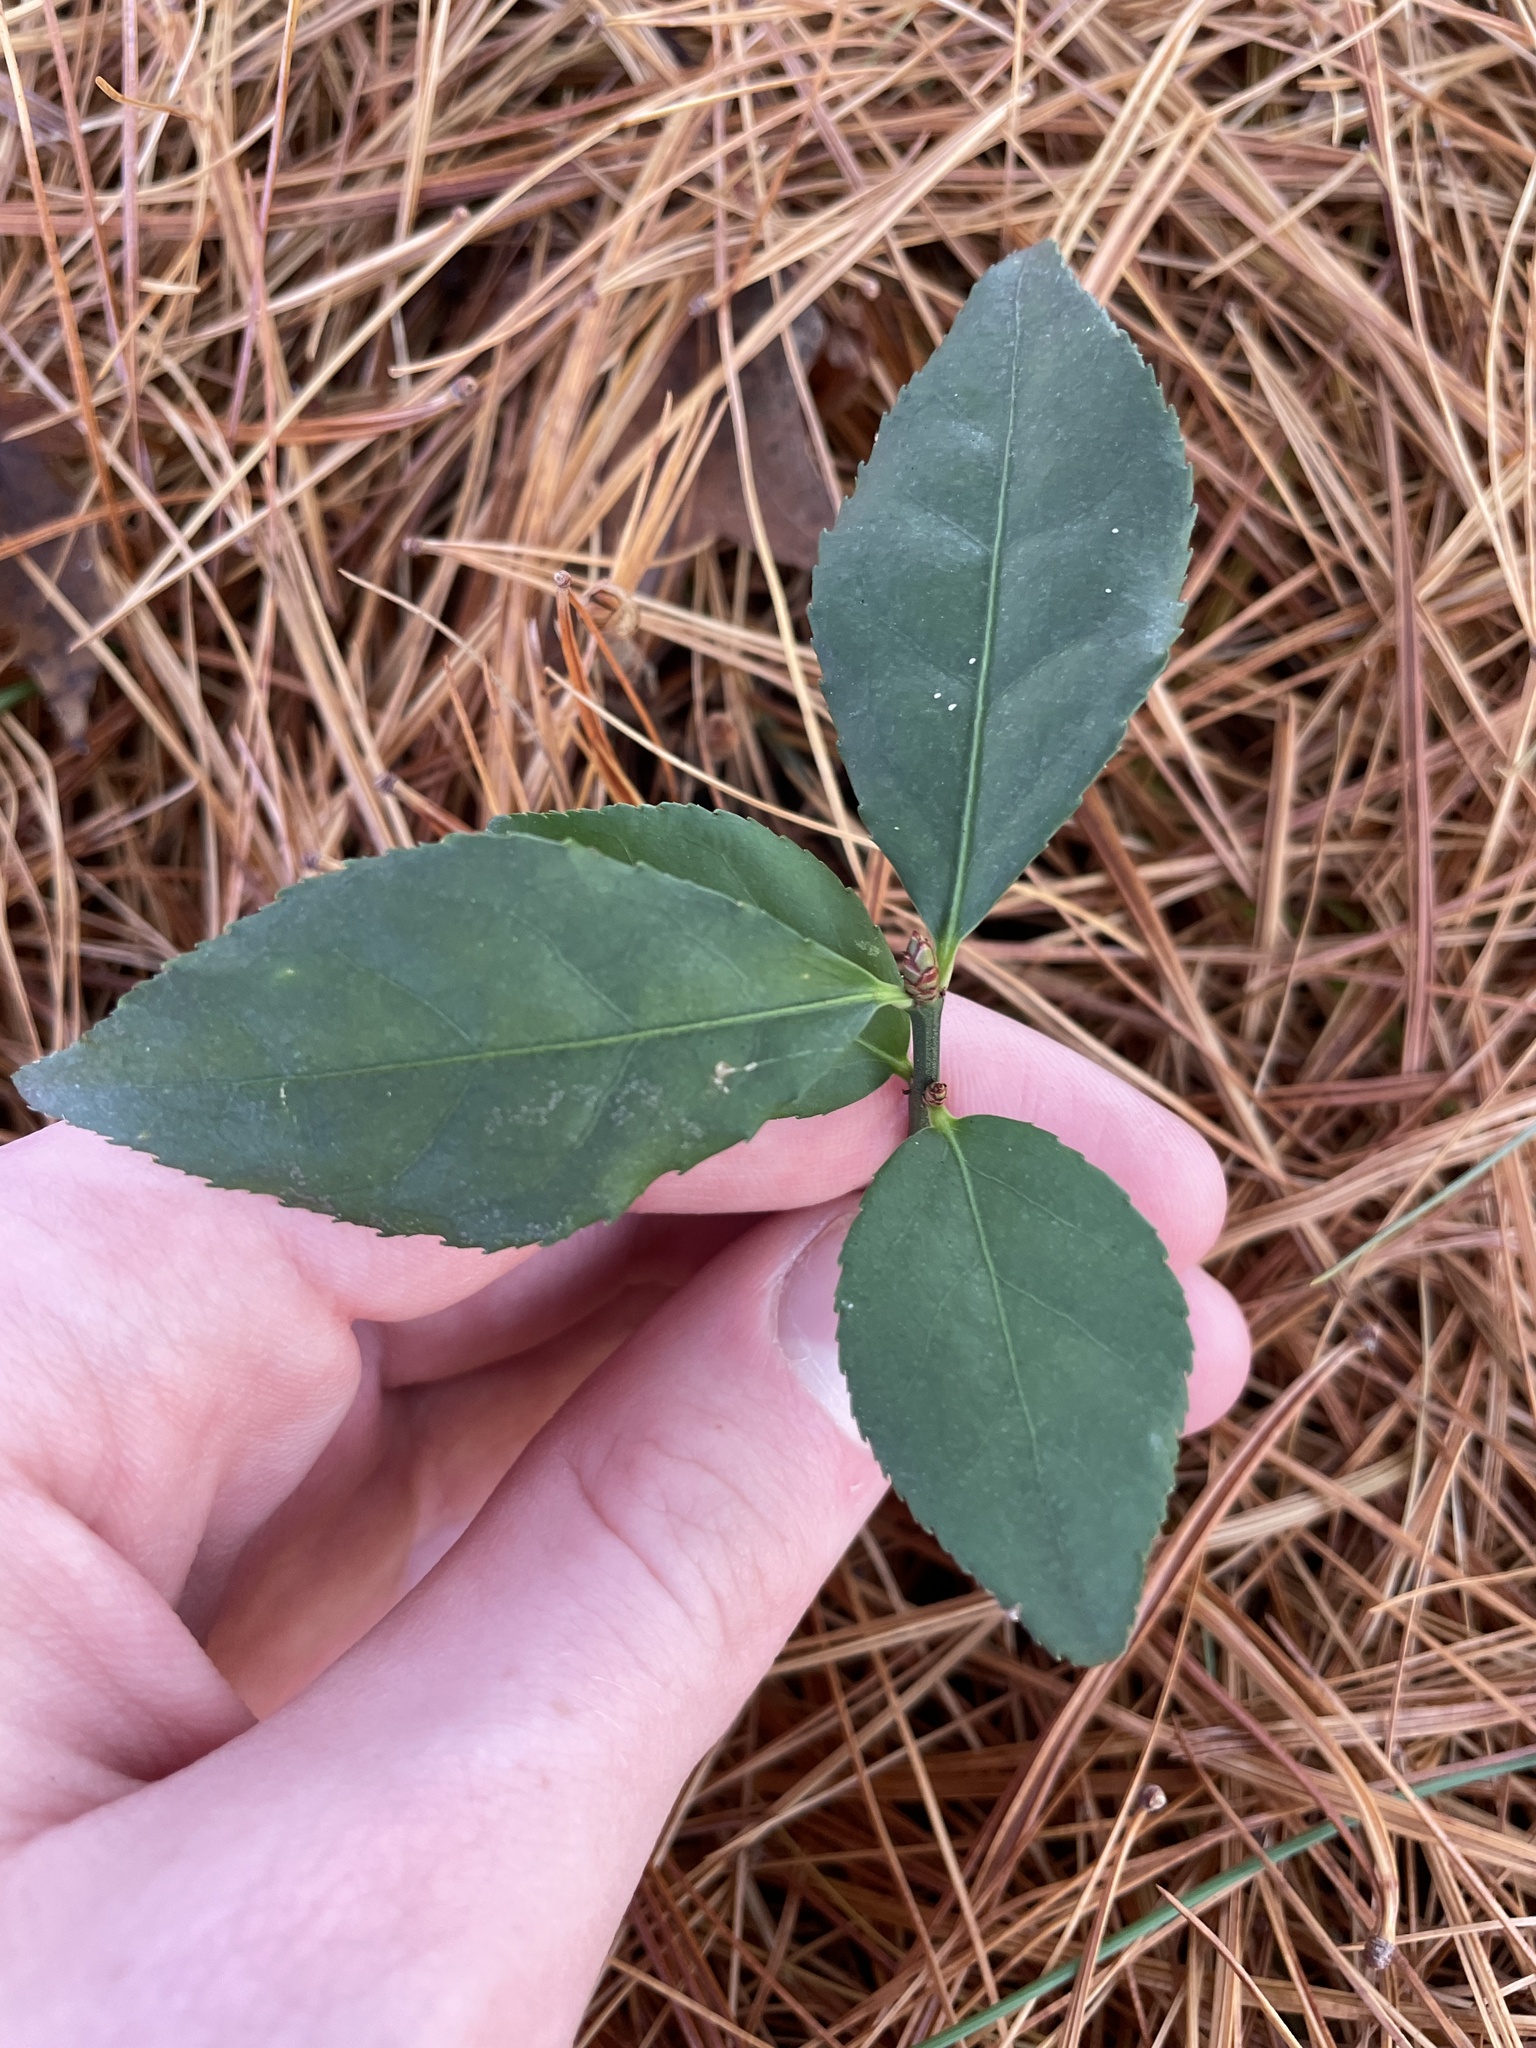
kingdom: Plantae
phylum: Tracheophyta
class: Magnoliopsida
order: Celastrales
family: Celastraceae
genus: Euonymus
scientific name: Euonymus alatus
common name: Winged euonymus
